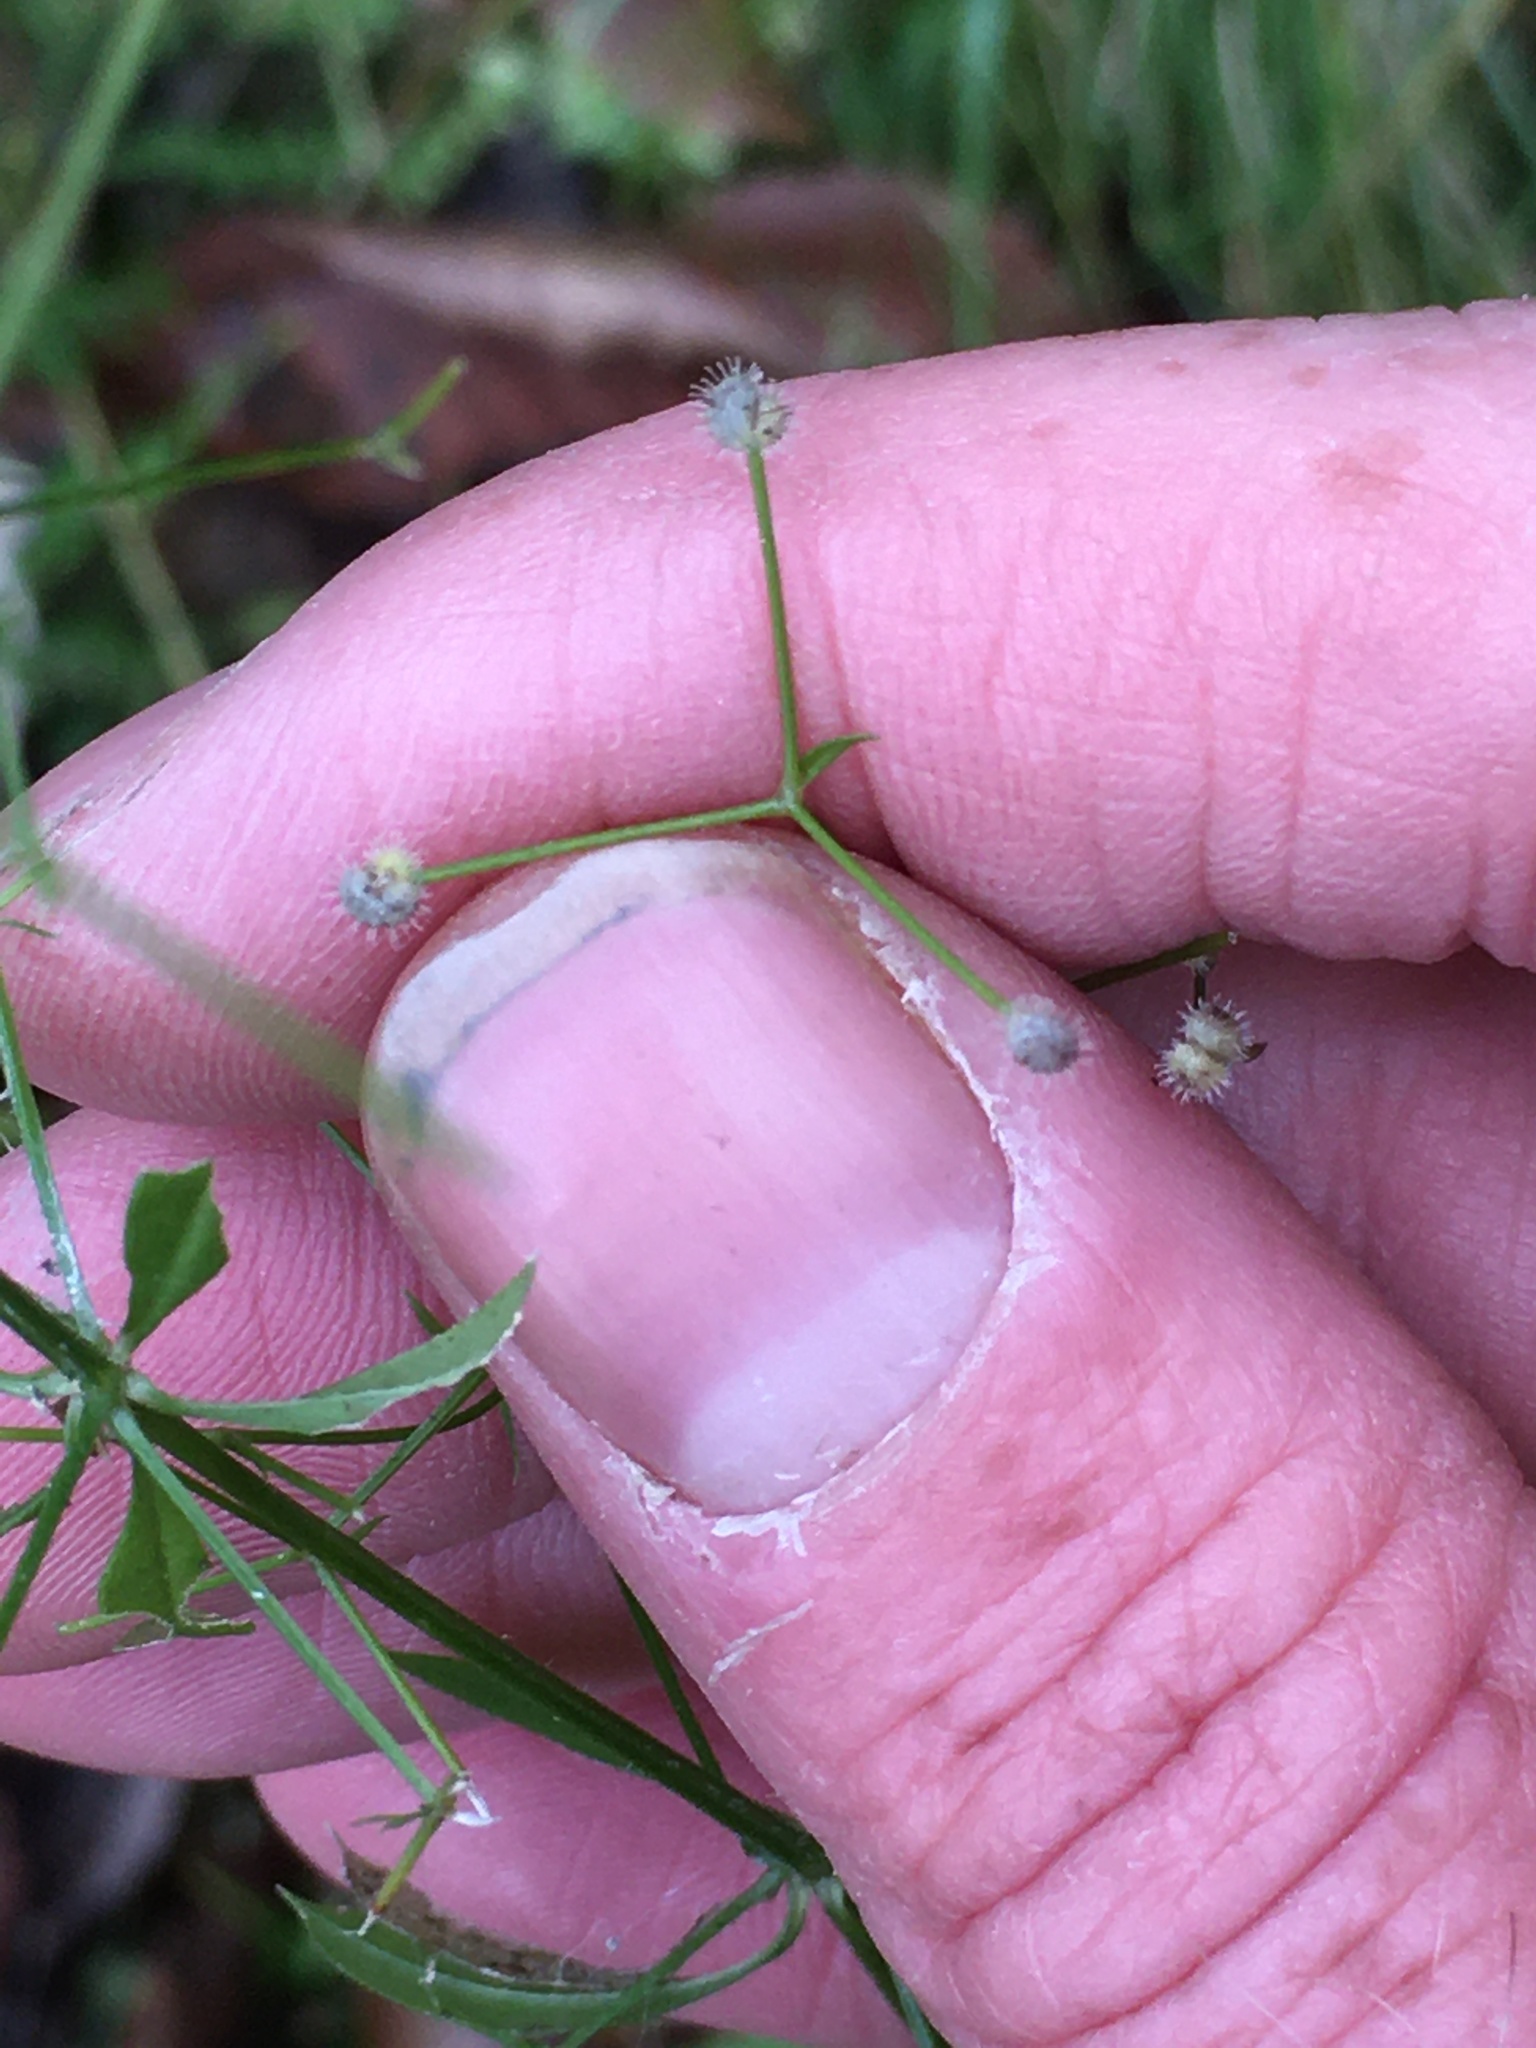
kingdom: Plantae
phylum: Tracheophyta
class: Magnoliopsida
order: Gentianales
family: Rubiaceae
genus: Galium
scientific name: Galium triflorum
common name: Fragrant bedstraw
